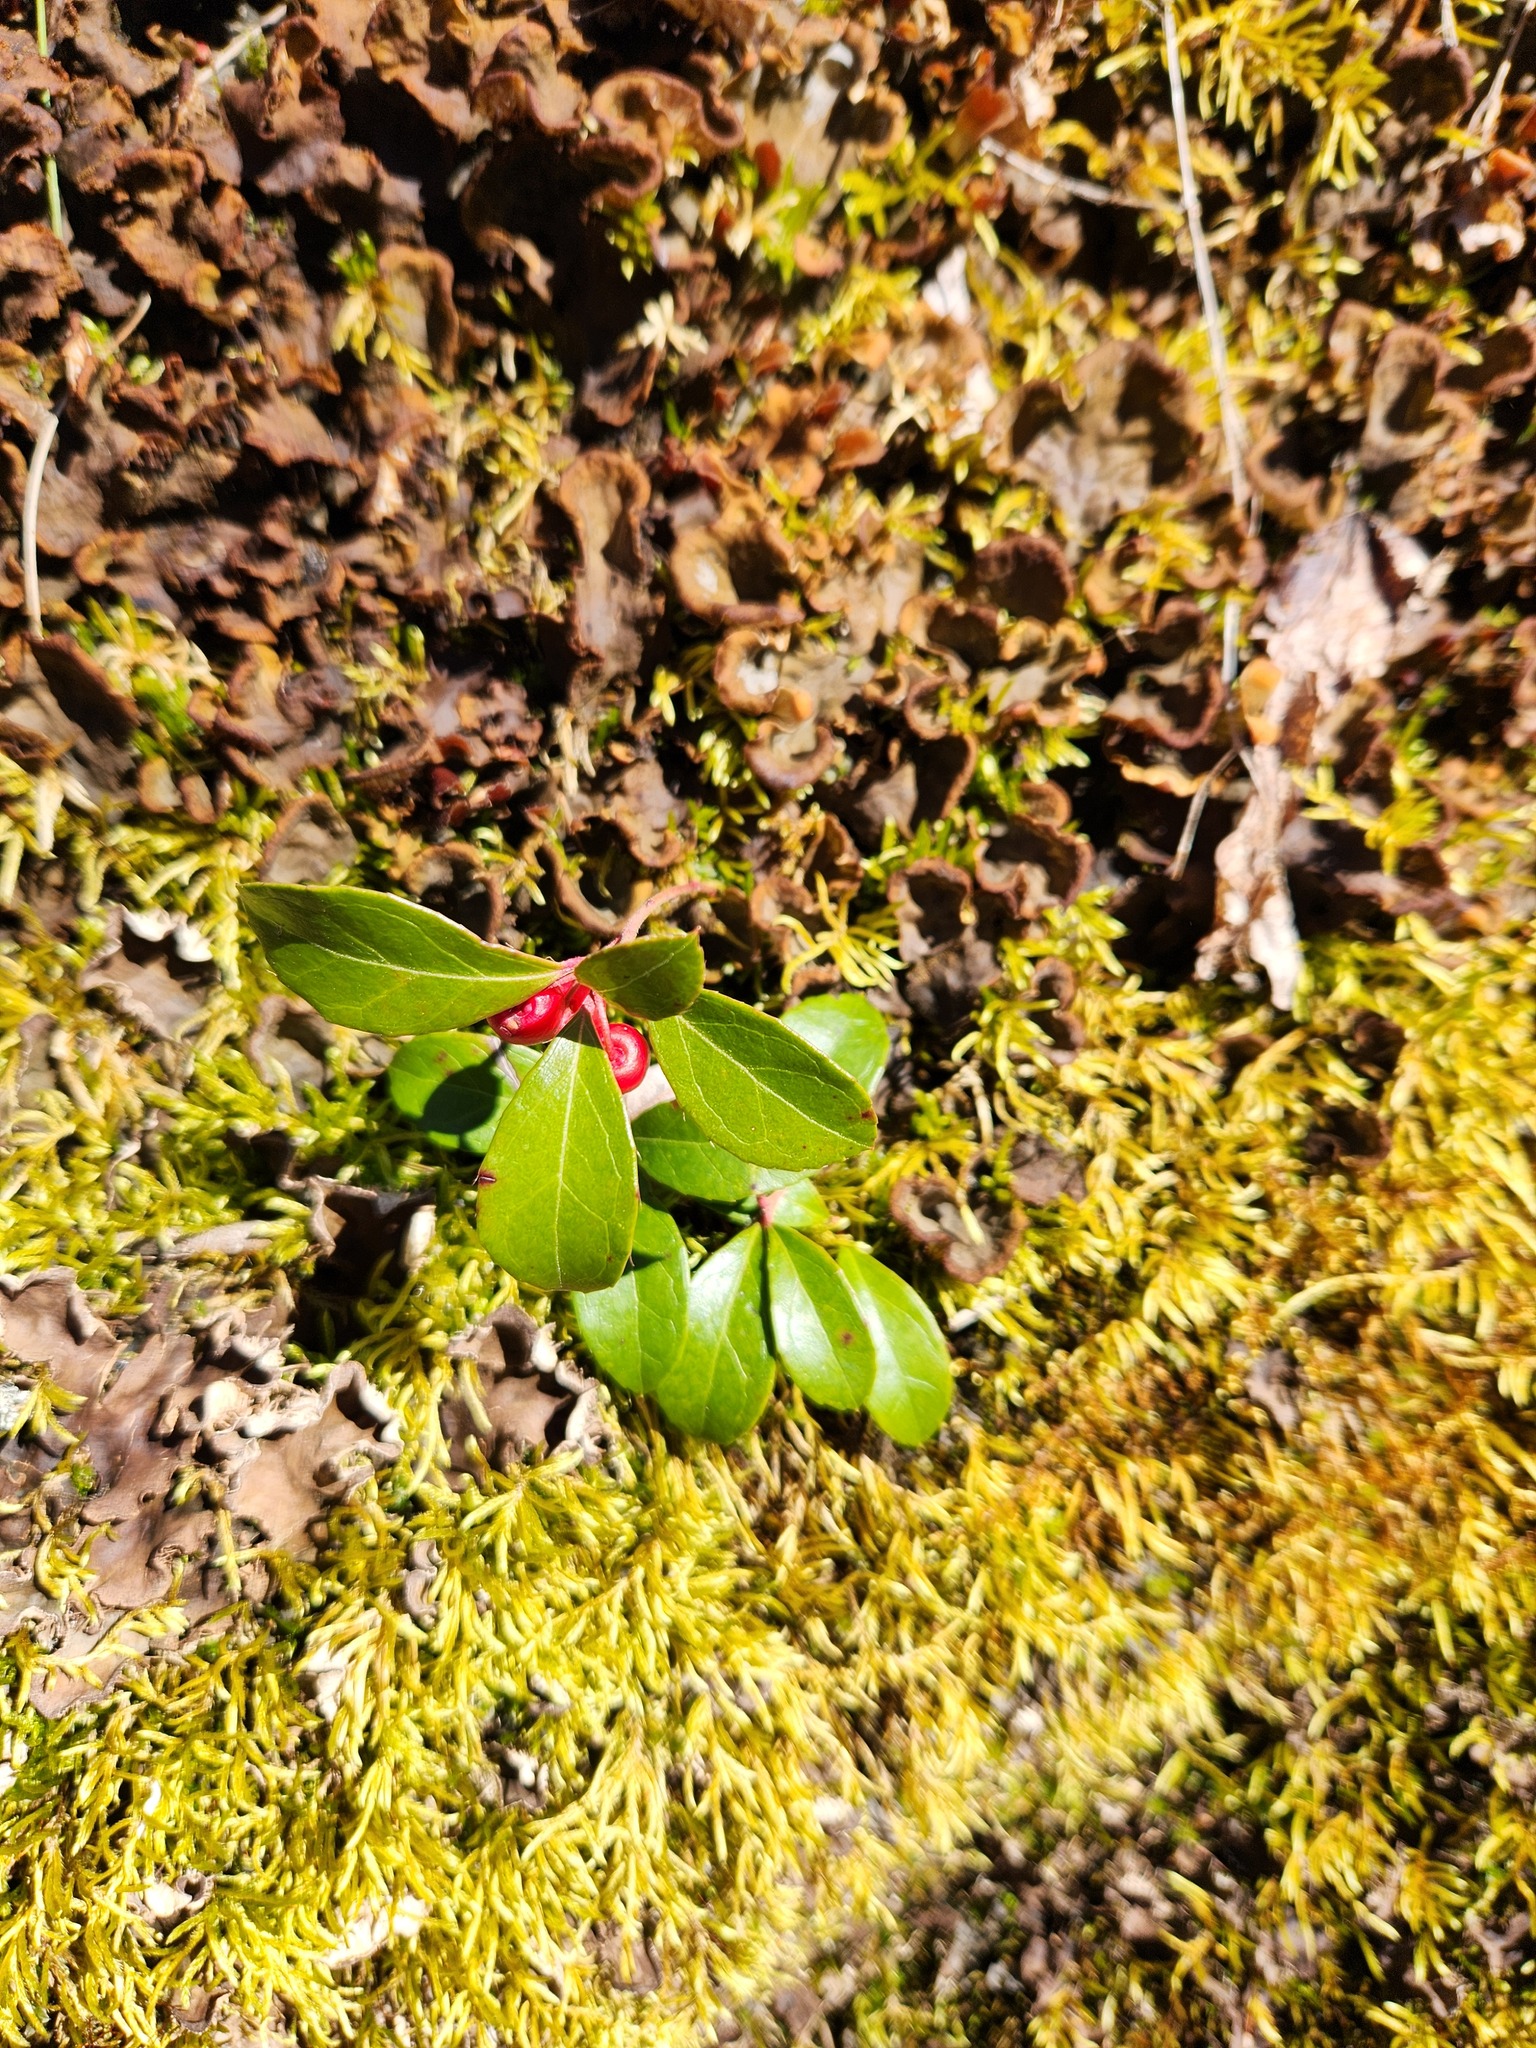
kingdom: Plantae
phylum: Tracheophyta
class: Magnoliopsida
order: Ericales
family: Ericaceae
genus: Gaultheria
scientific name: Gaultheria procumbens
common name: Checkerberry
